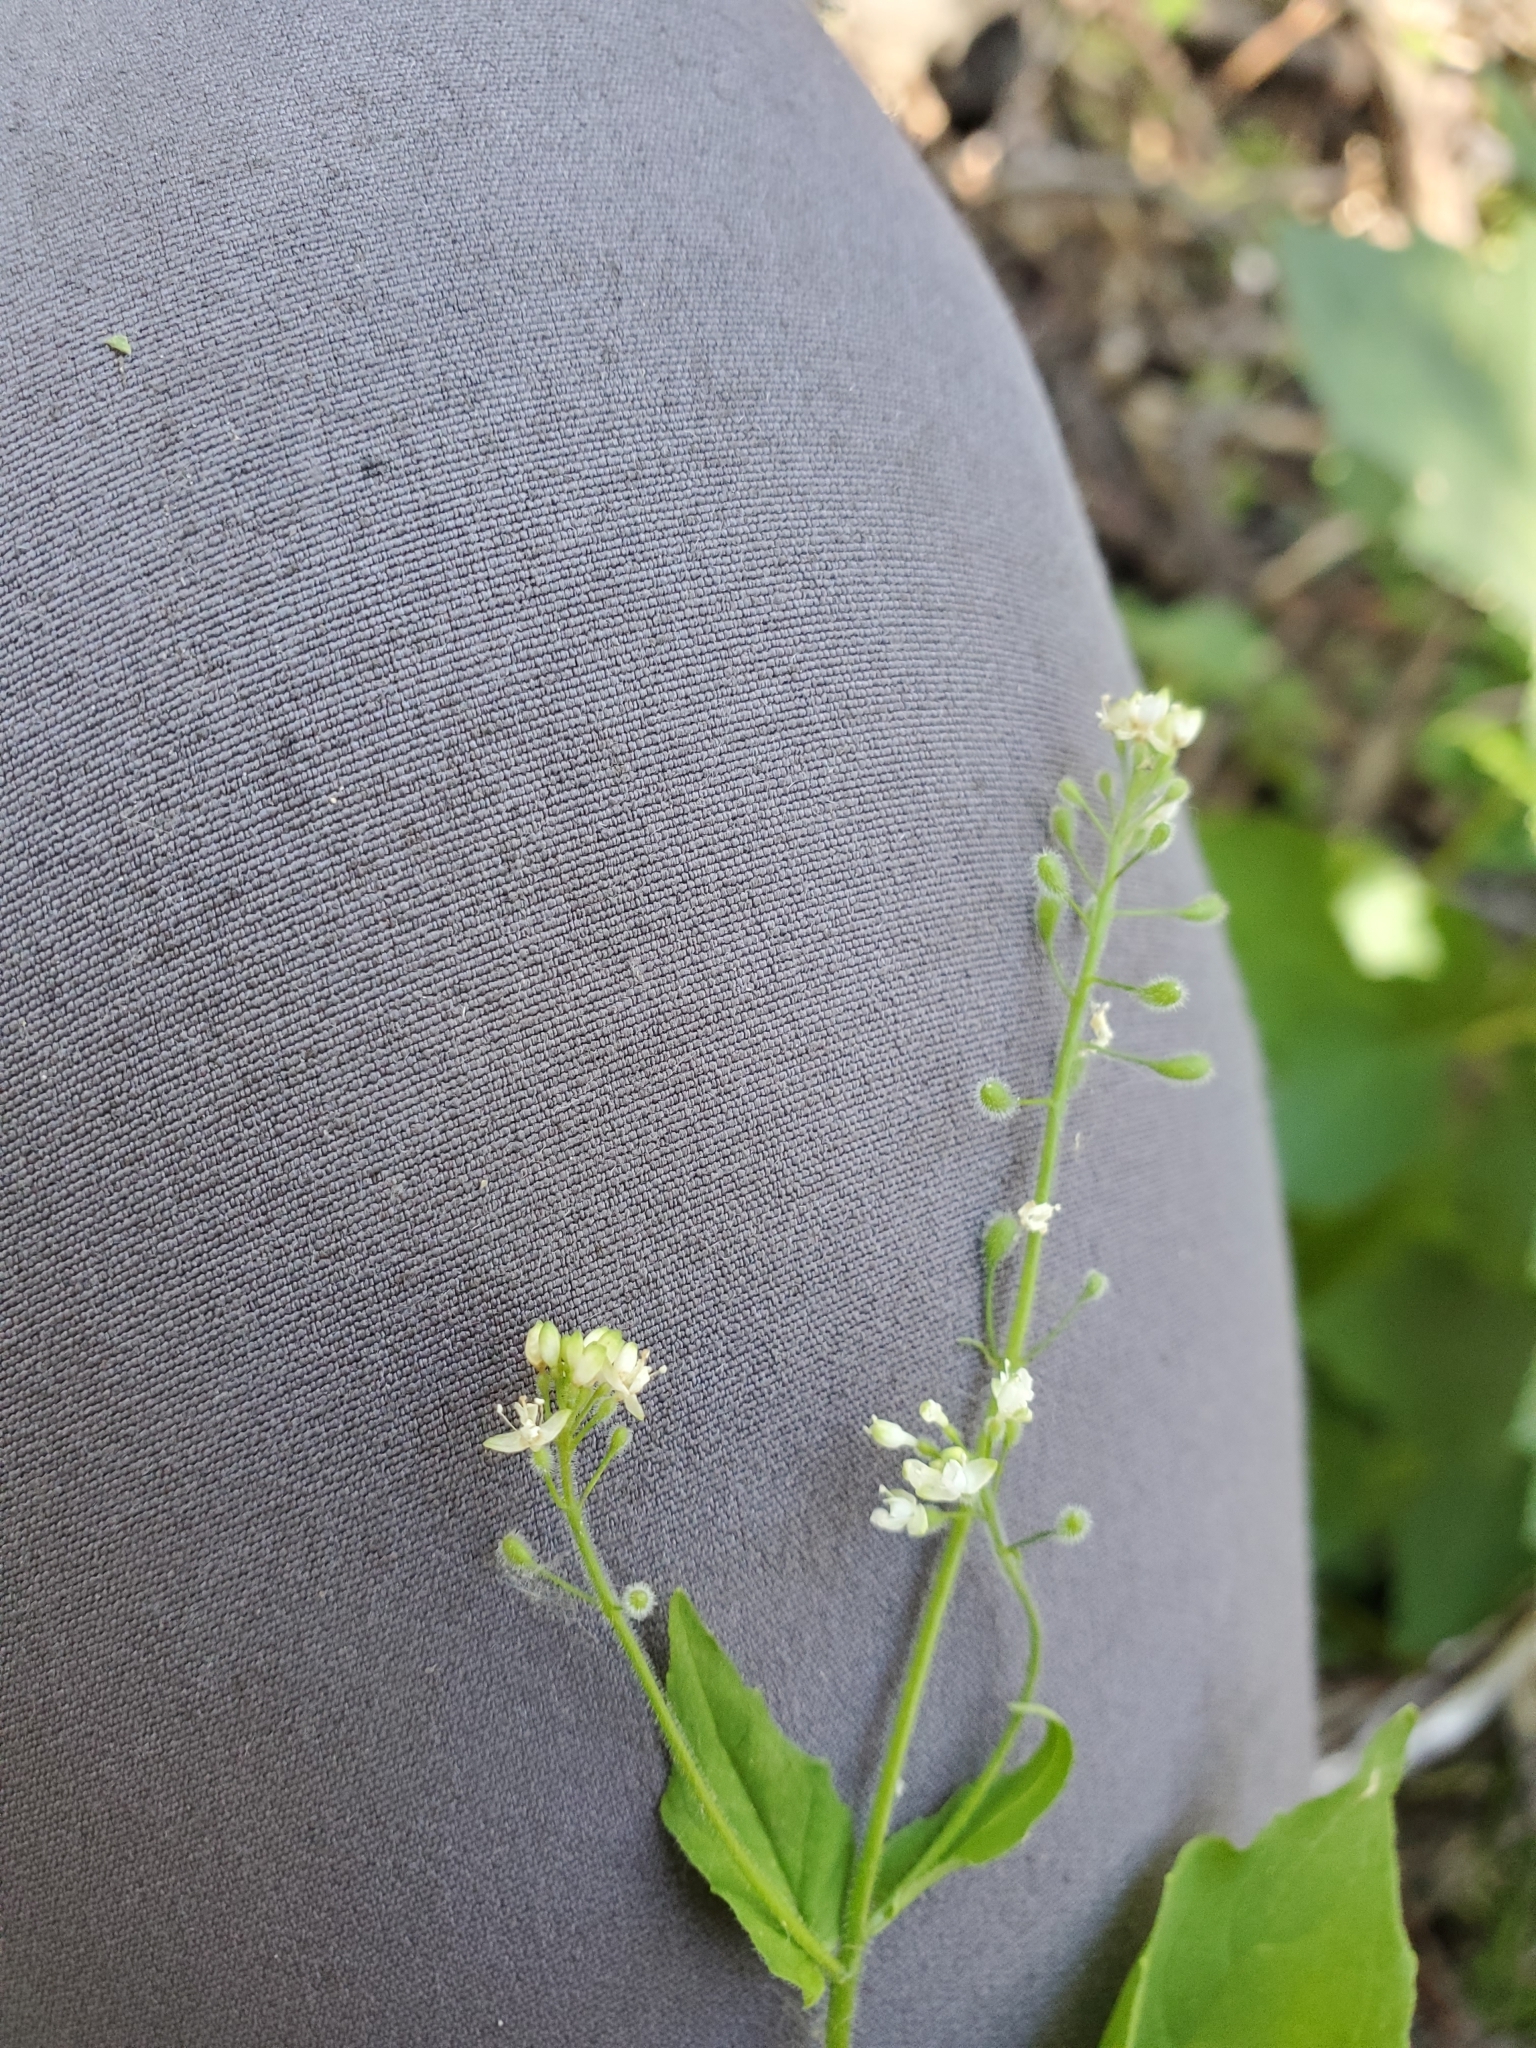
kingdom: Plantae
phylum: Tracheophyta
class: Magnoliopsida
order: Myrtales
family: Onagraceae
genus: Circaea
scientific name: Circaea alpina
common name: Alpine enchanter's-nightshade
